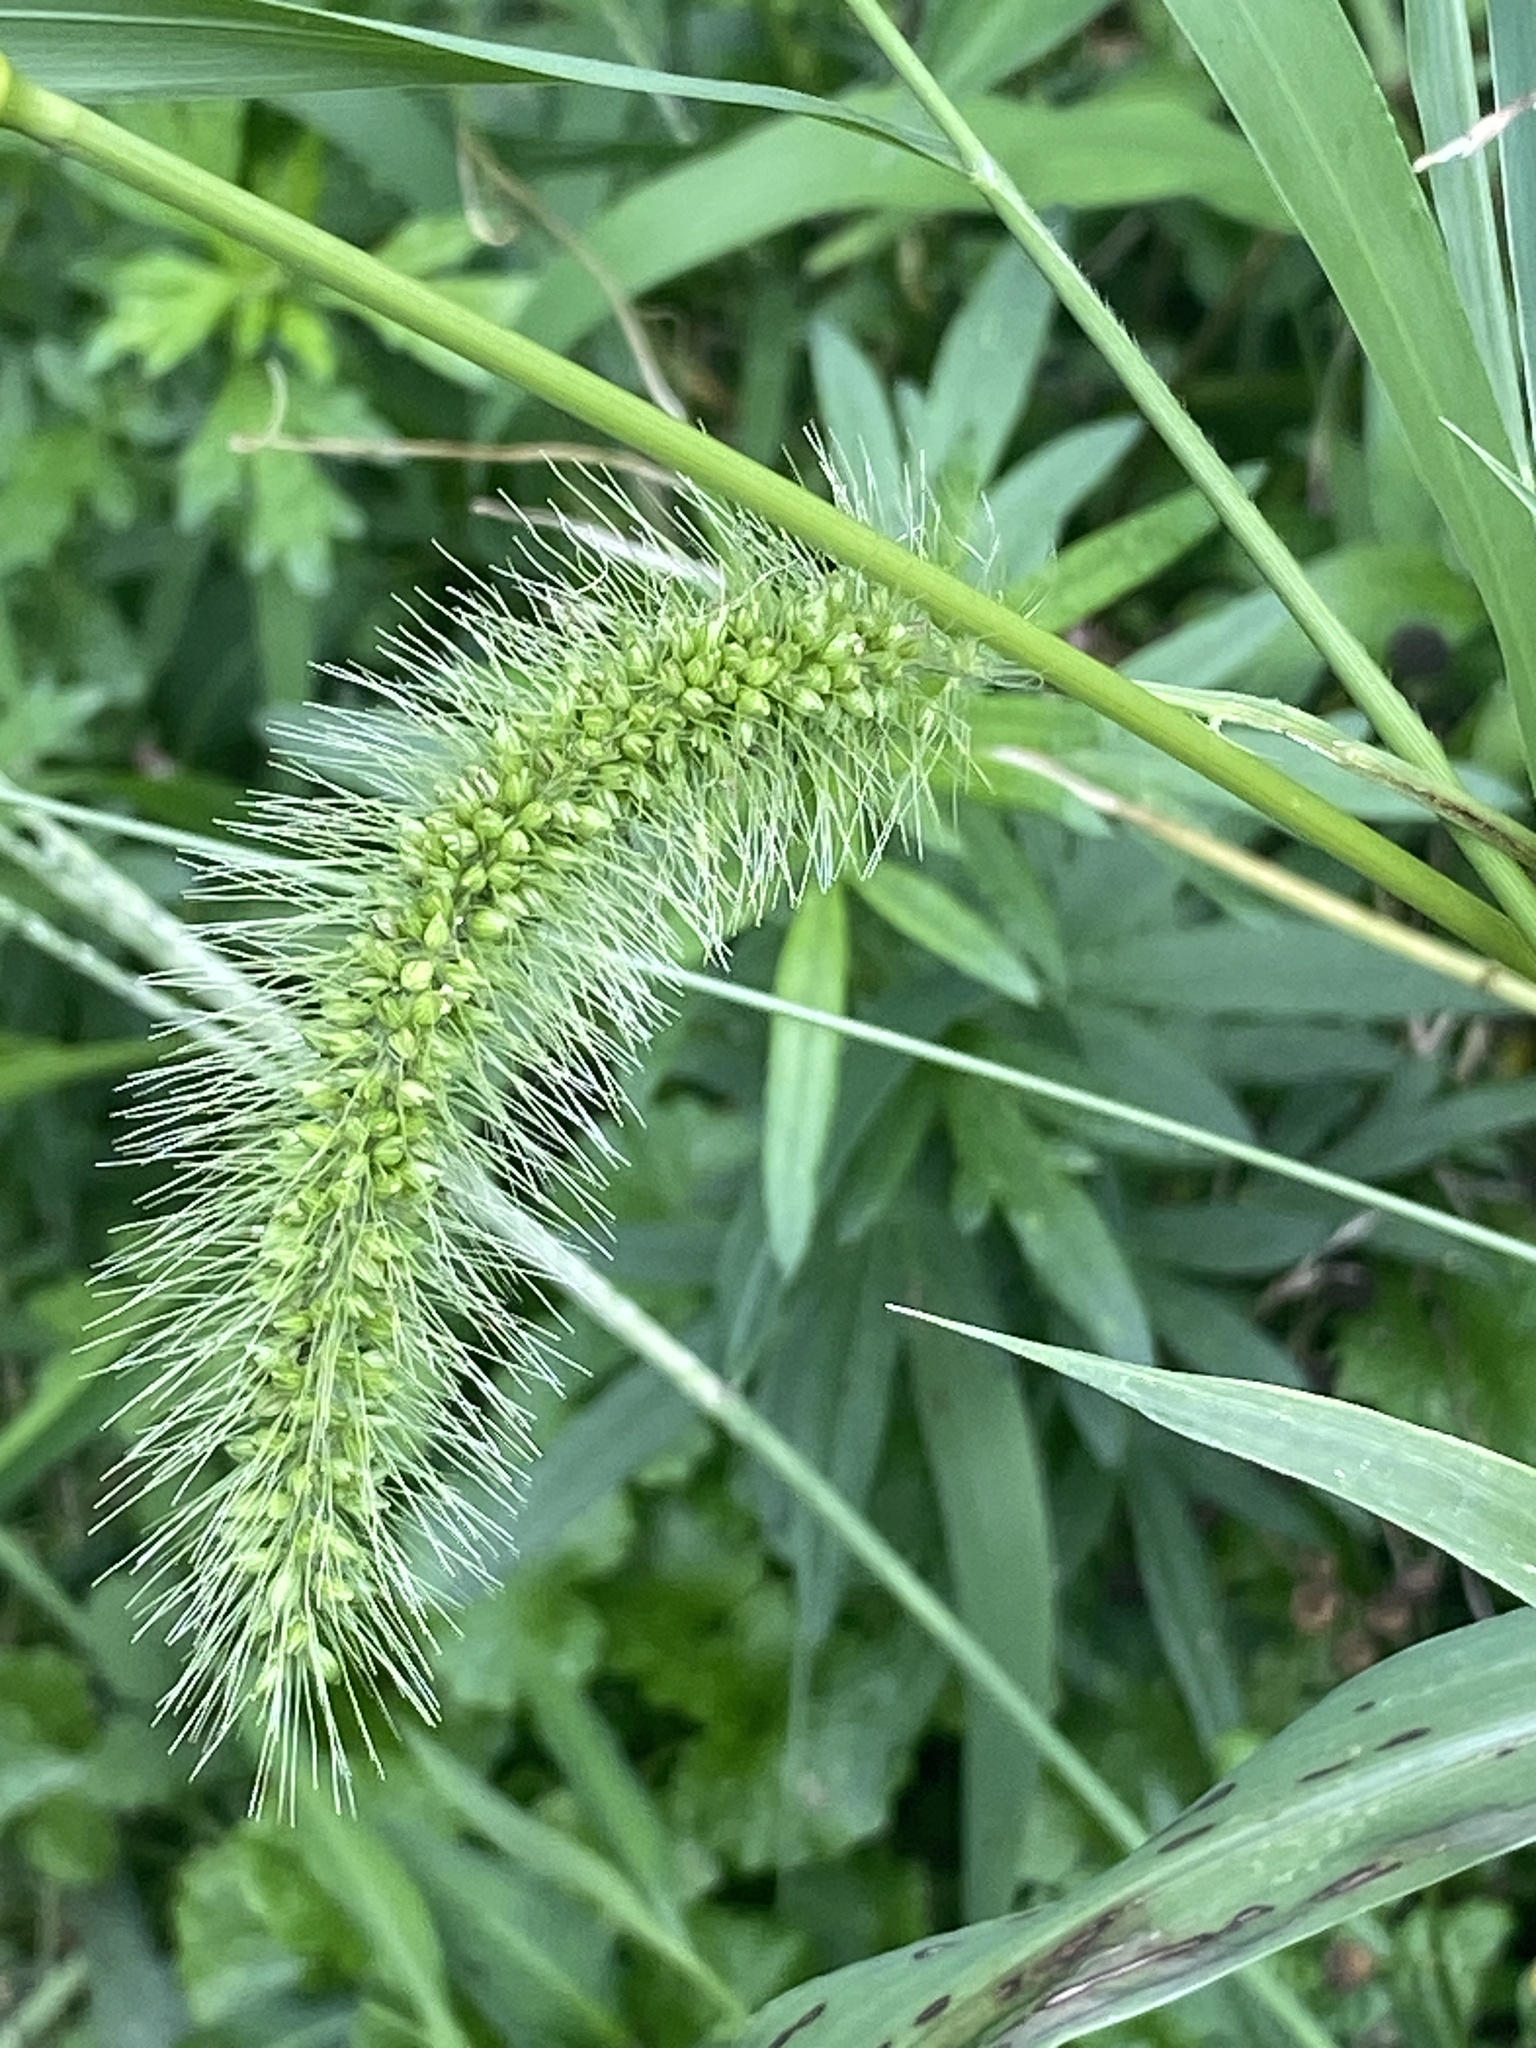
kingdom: Plantae
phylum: Tracheophyta
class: Liliopsida
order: Poales
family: Poaceae
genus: Setaria
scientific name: Setaria faberi
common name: Nodding bristle-grass
